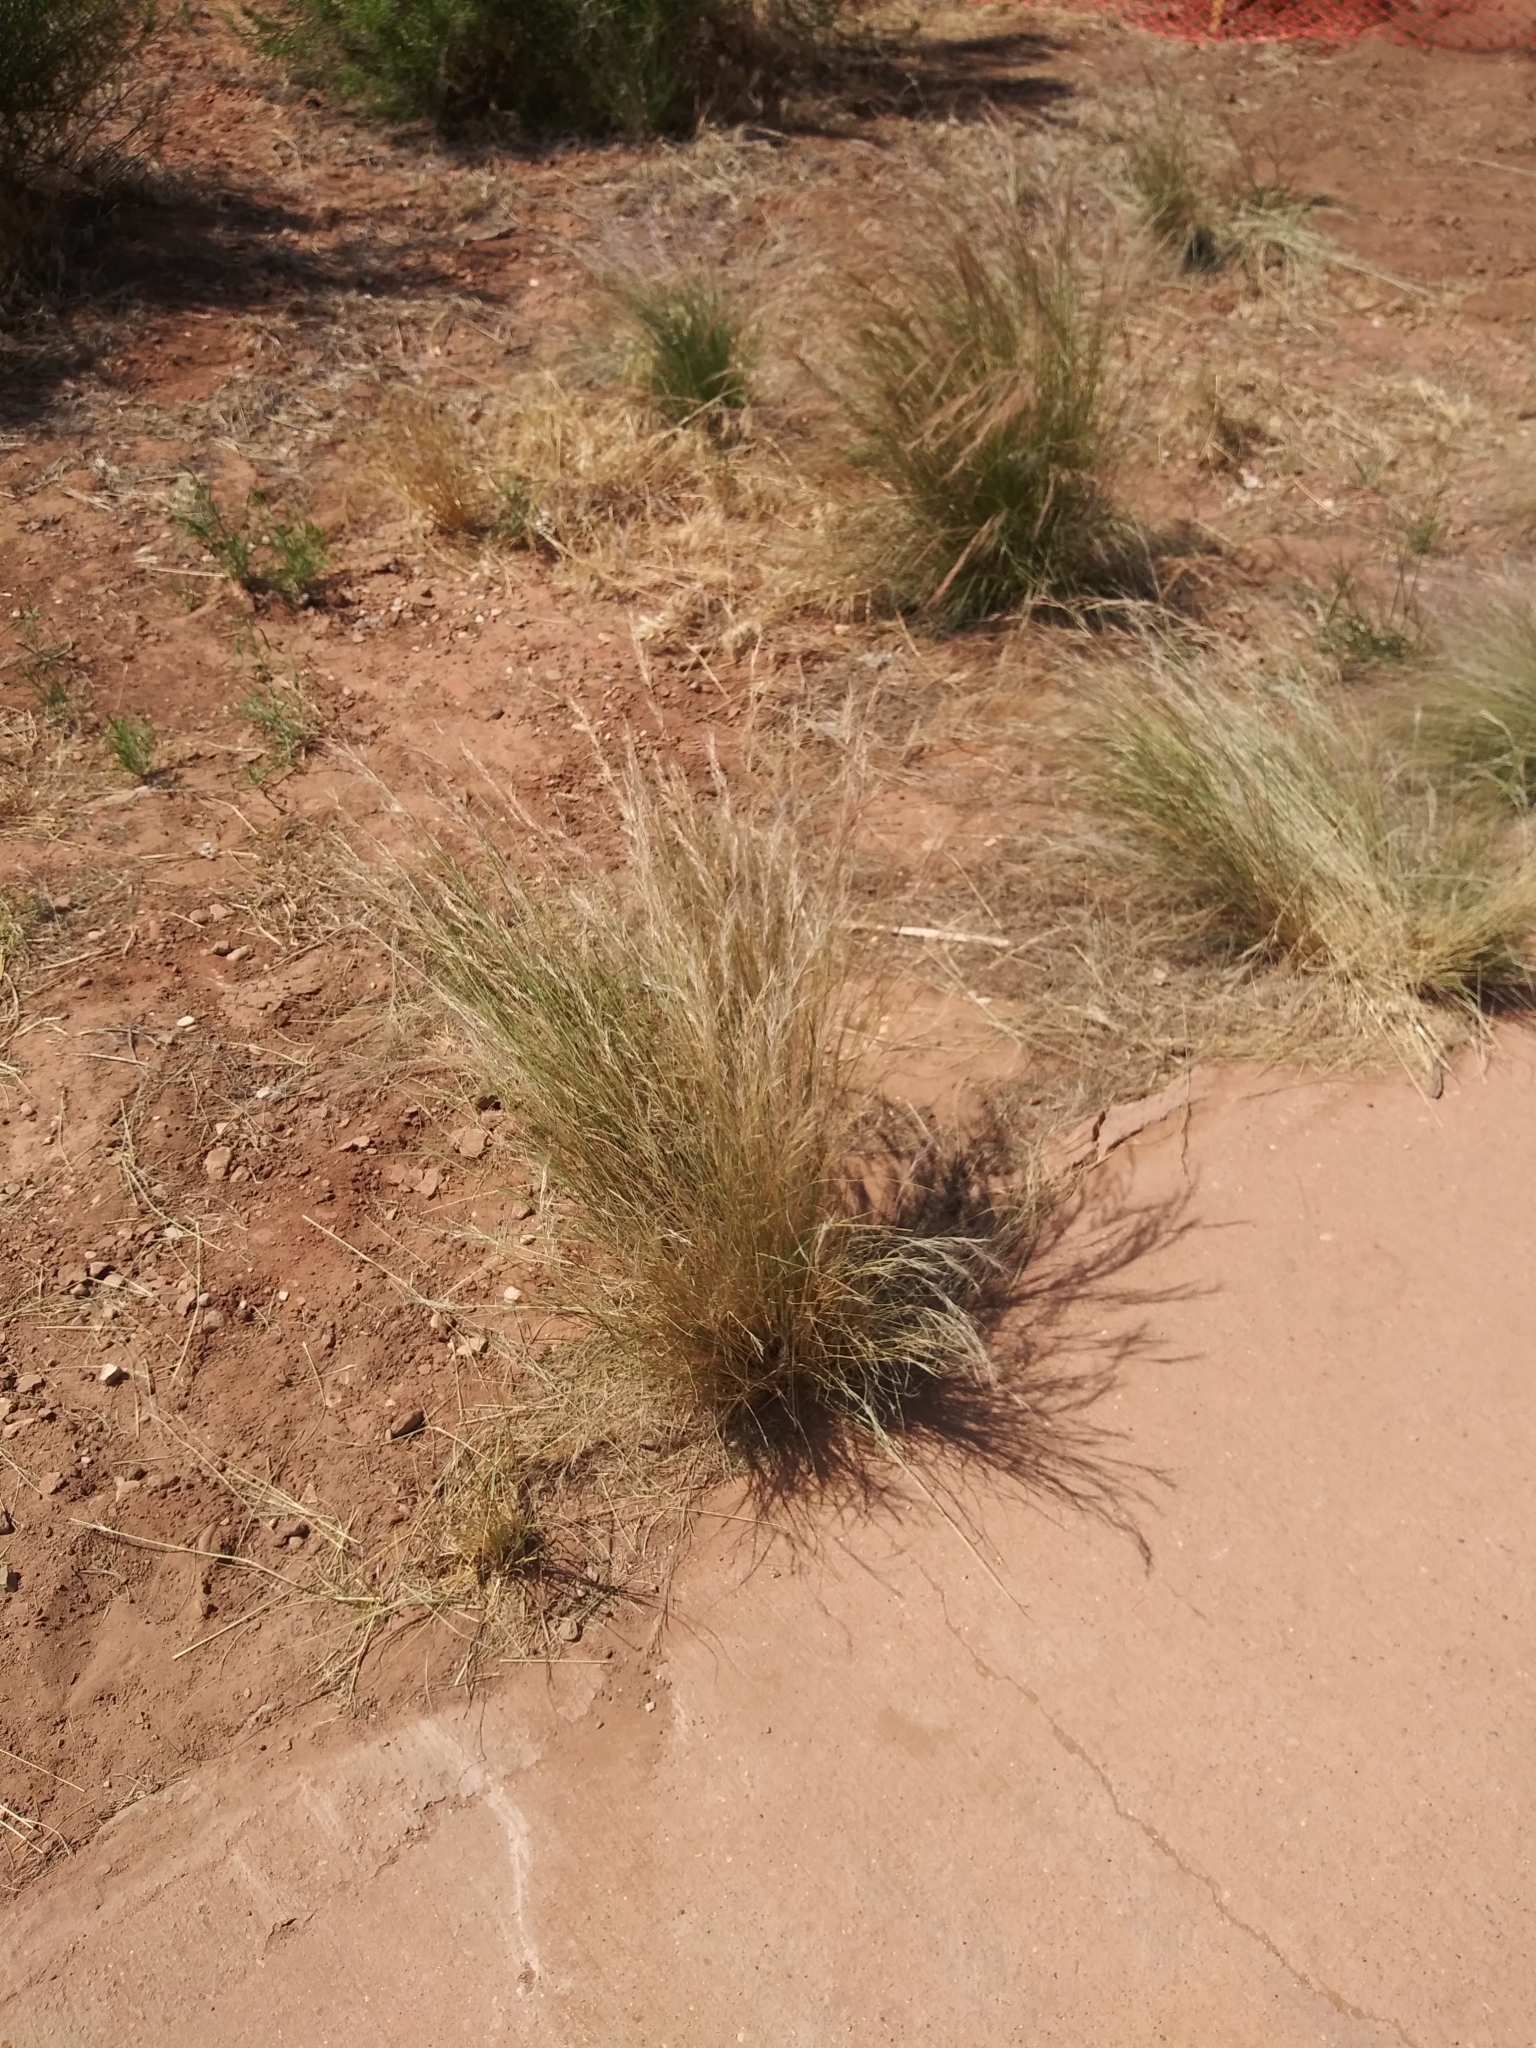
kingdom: Plantae
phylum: Tracheophyta
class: Liliopsida
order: Poales
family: Poaceae
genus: Aristida
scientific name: Aristida purpurea
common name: Purple threeawn
